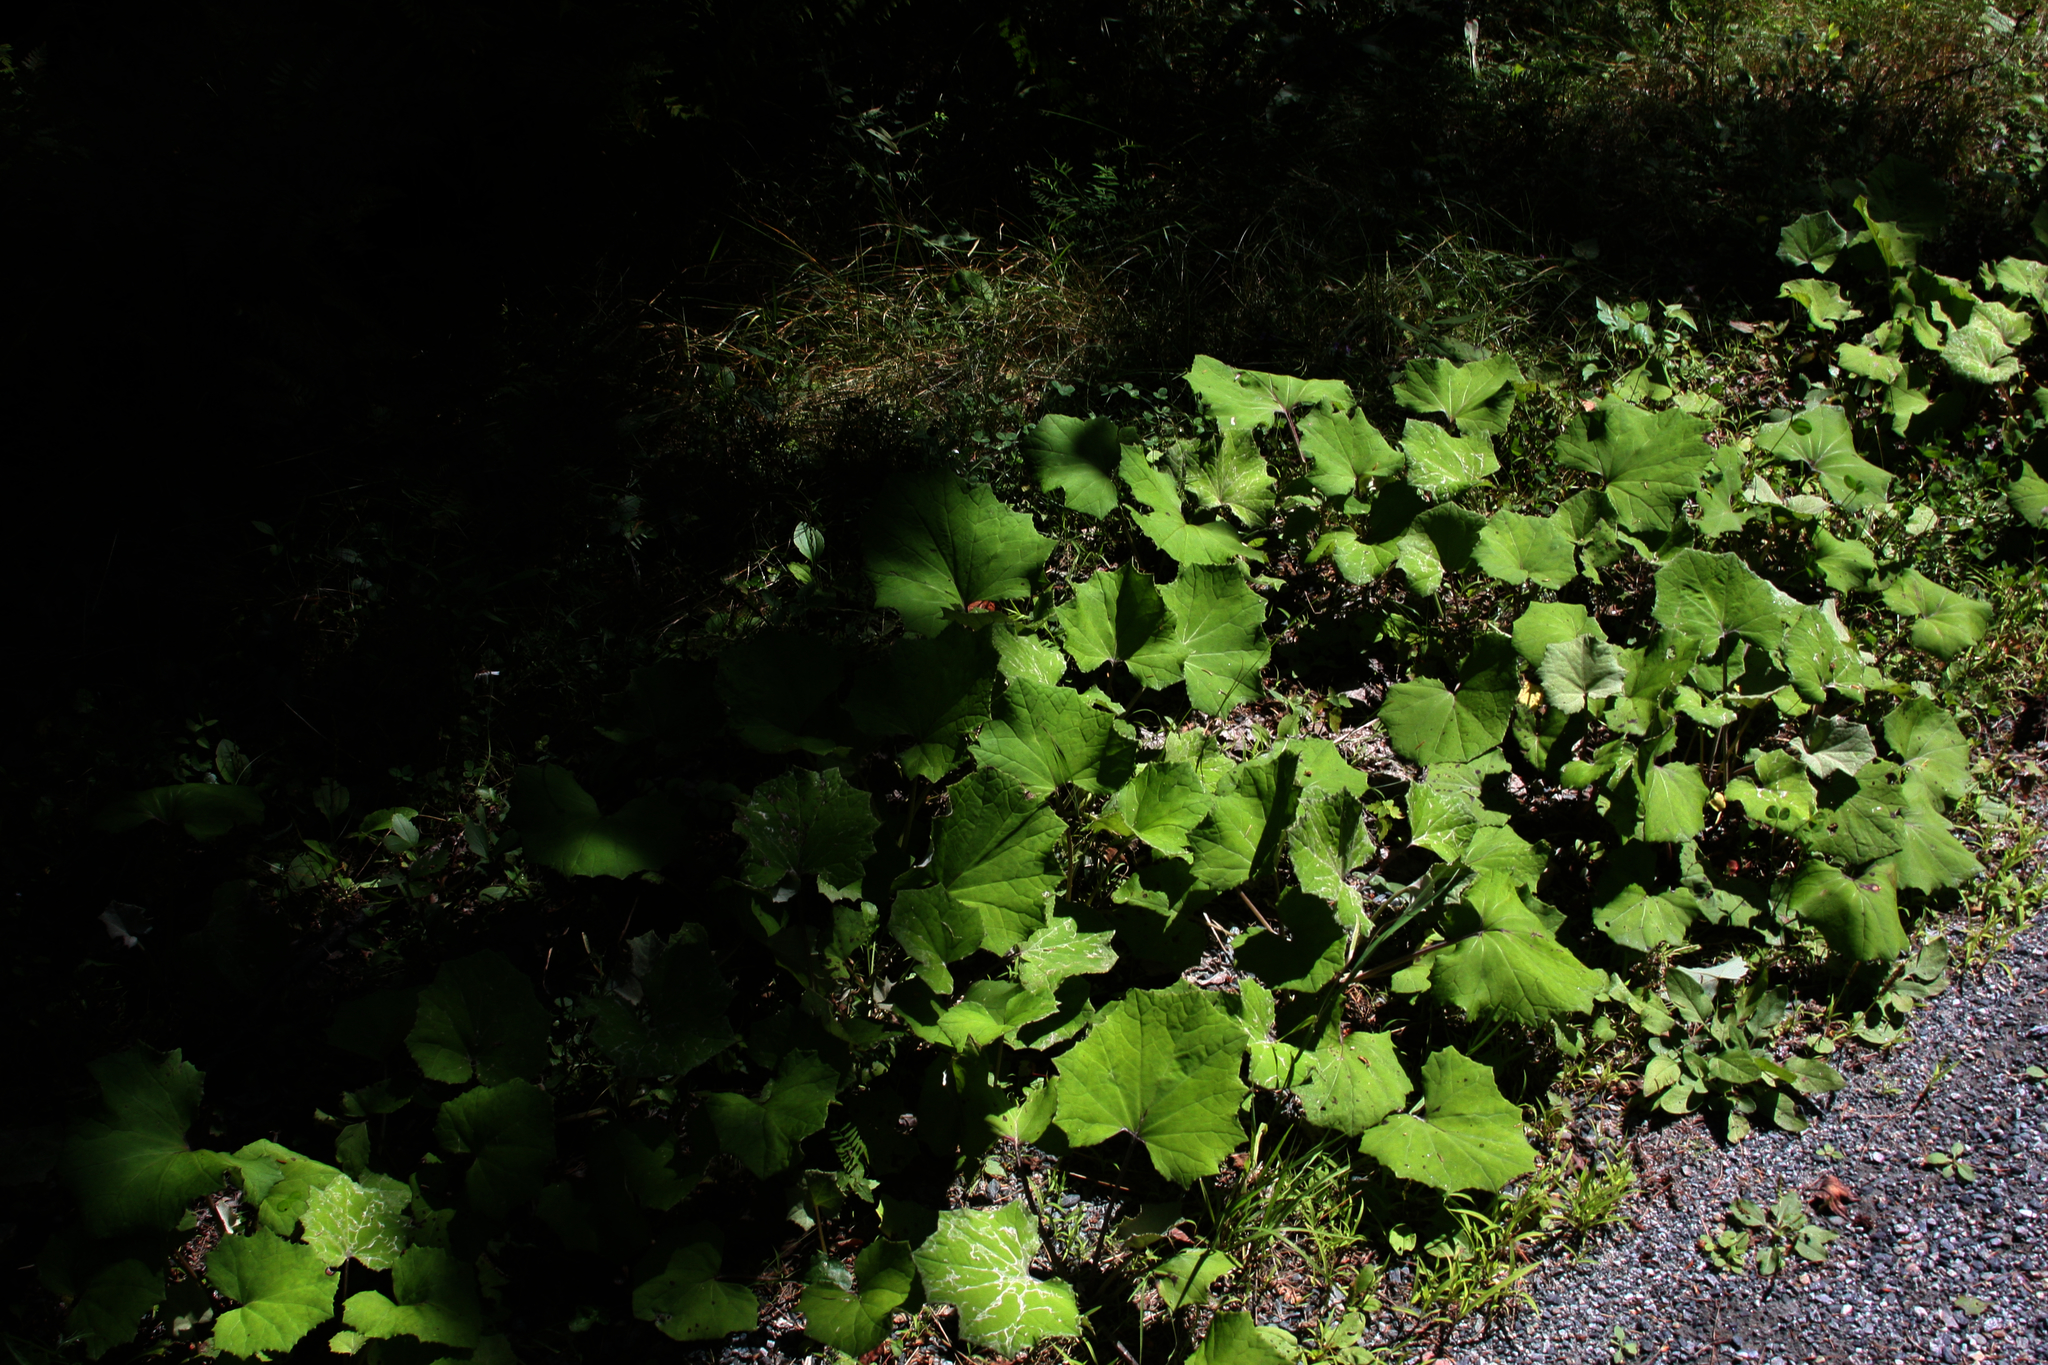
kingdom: Plantae
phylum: Tracheophyta
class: Magnoliopsida
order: Asterales
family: Asteraceae
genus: Tussilago
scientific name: Tussilago farfara
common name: Coltsfoot
